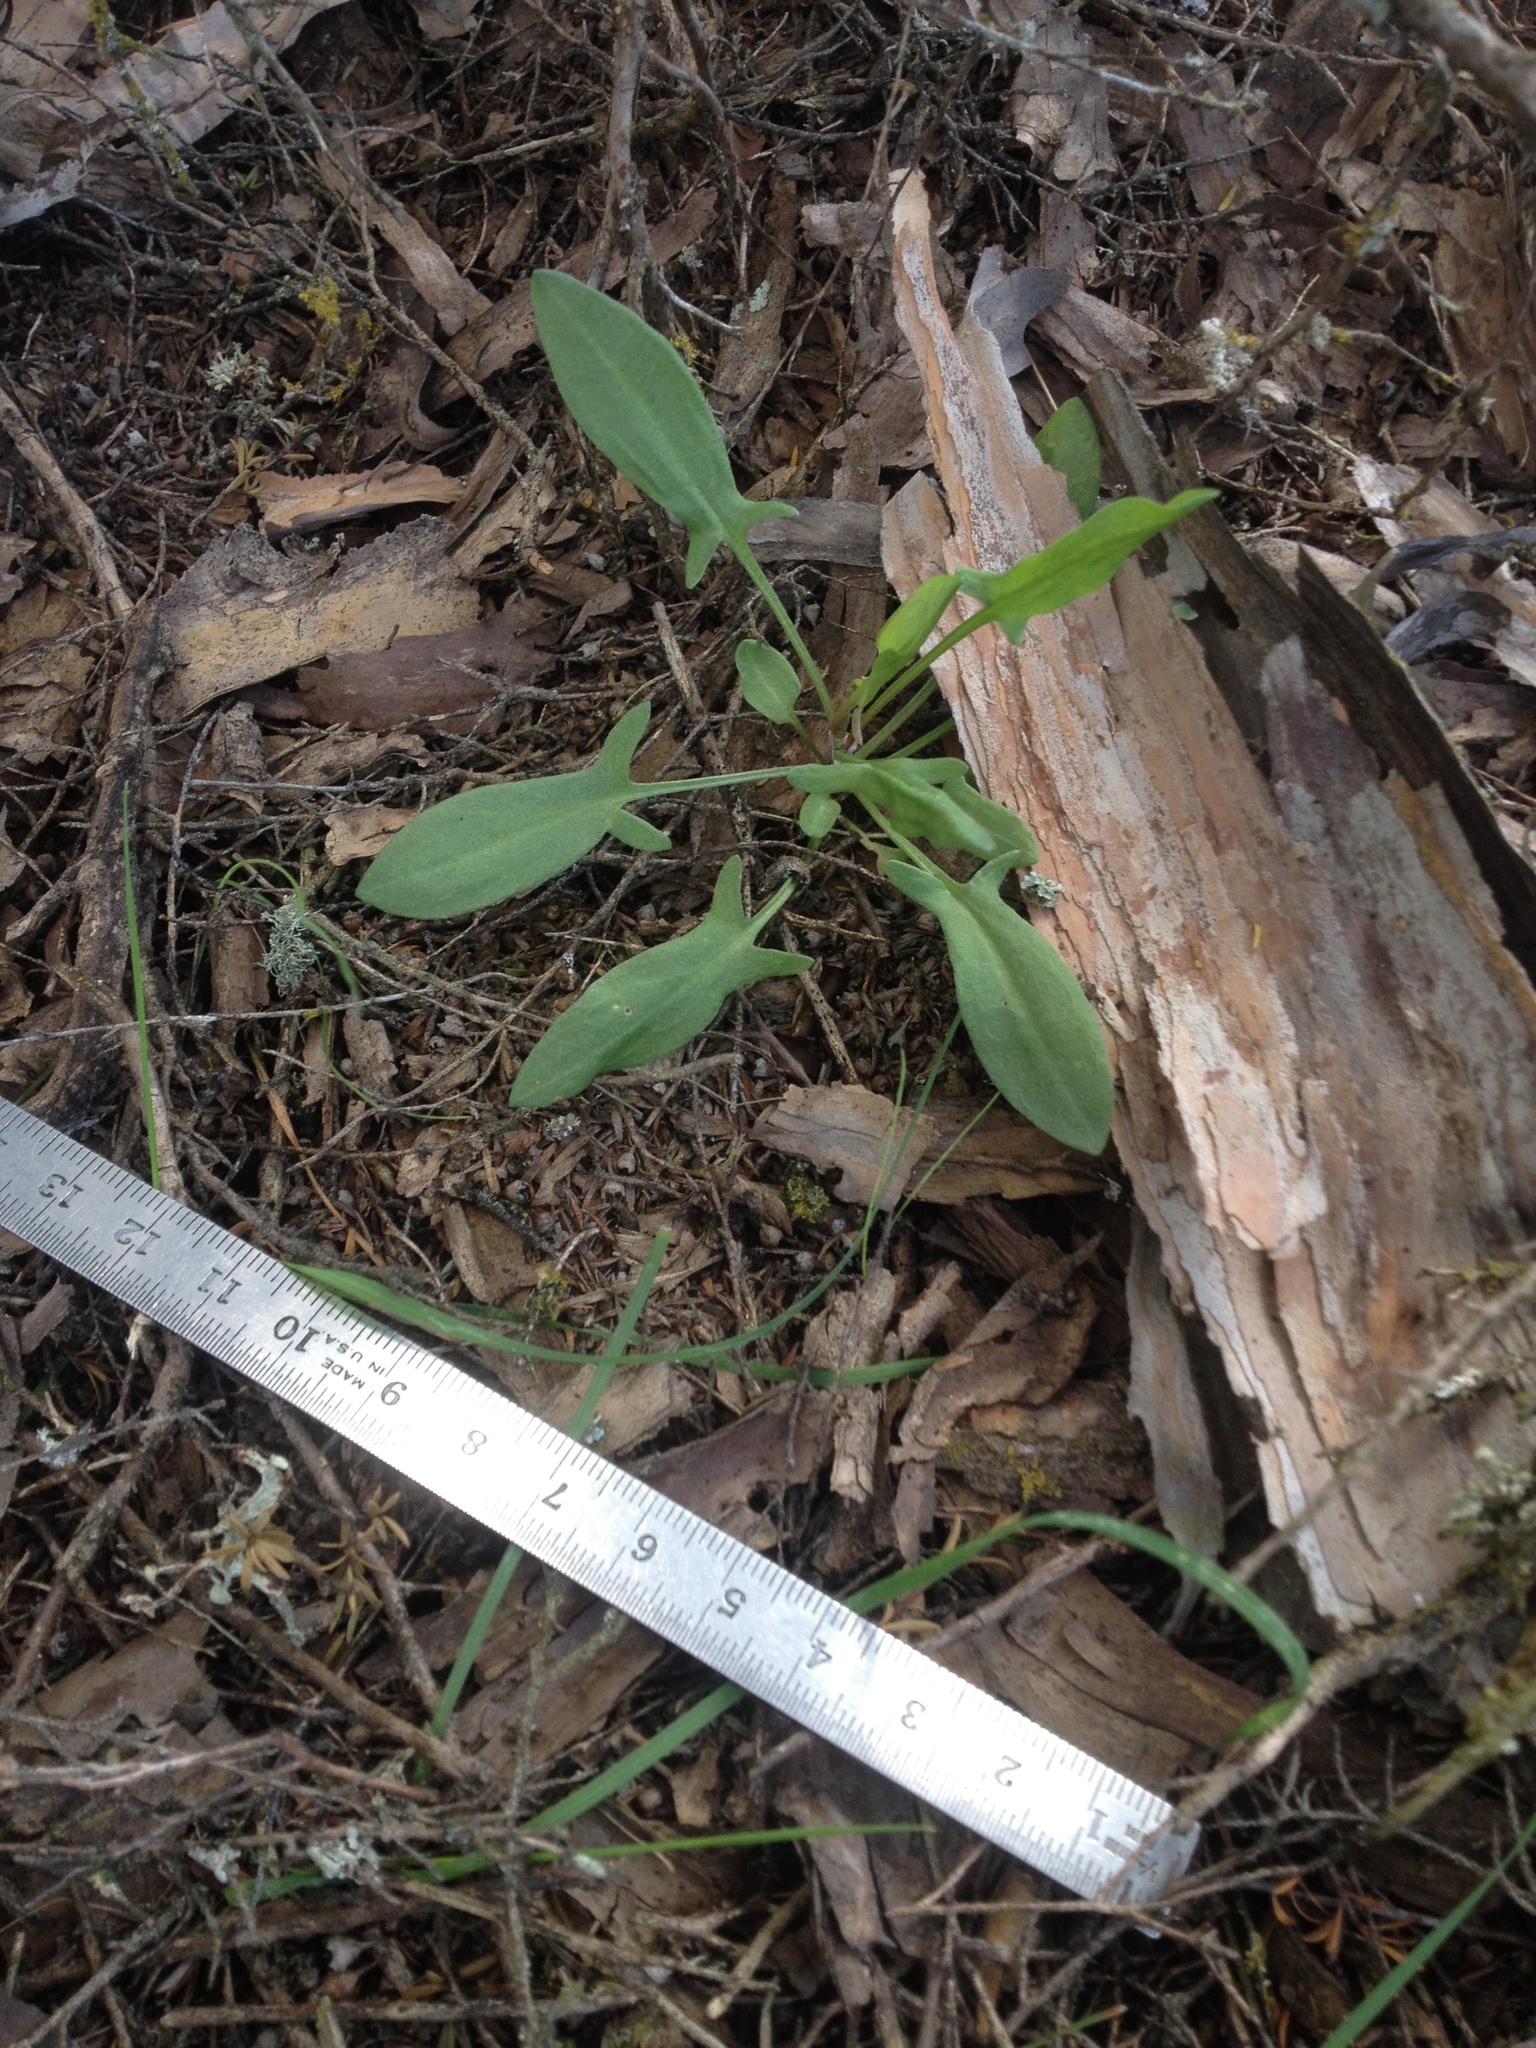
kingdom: Plantae
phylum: Tracheophyta
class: Magnoliopsida
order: Caryophyllales
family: Polygonaceae
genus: Rumex
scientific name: Rumex acetosella
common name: Common sheep sorrel
